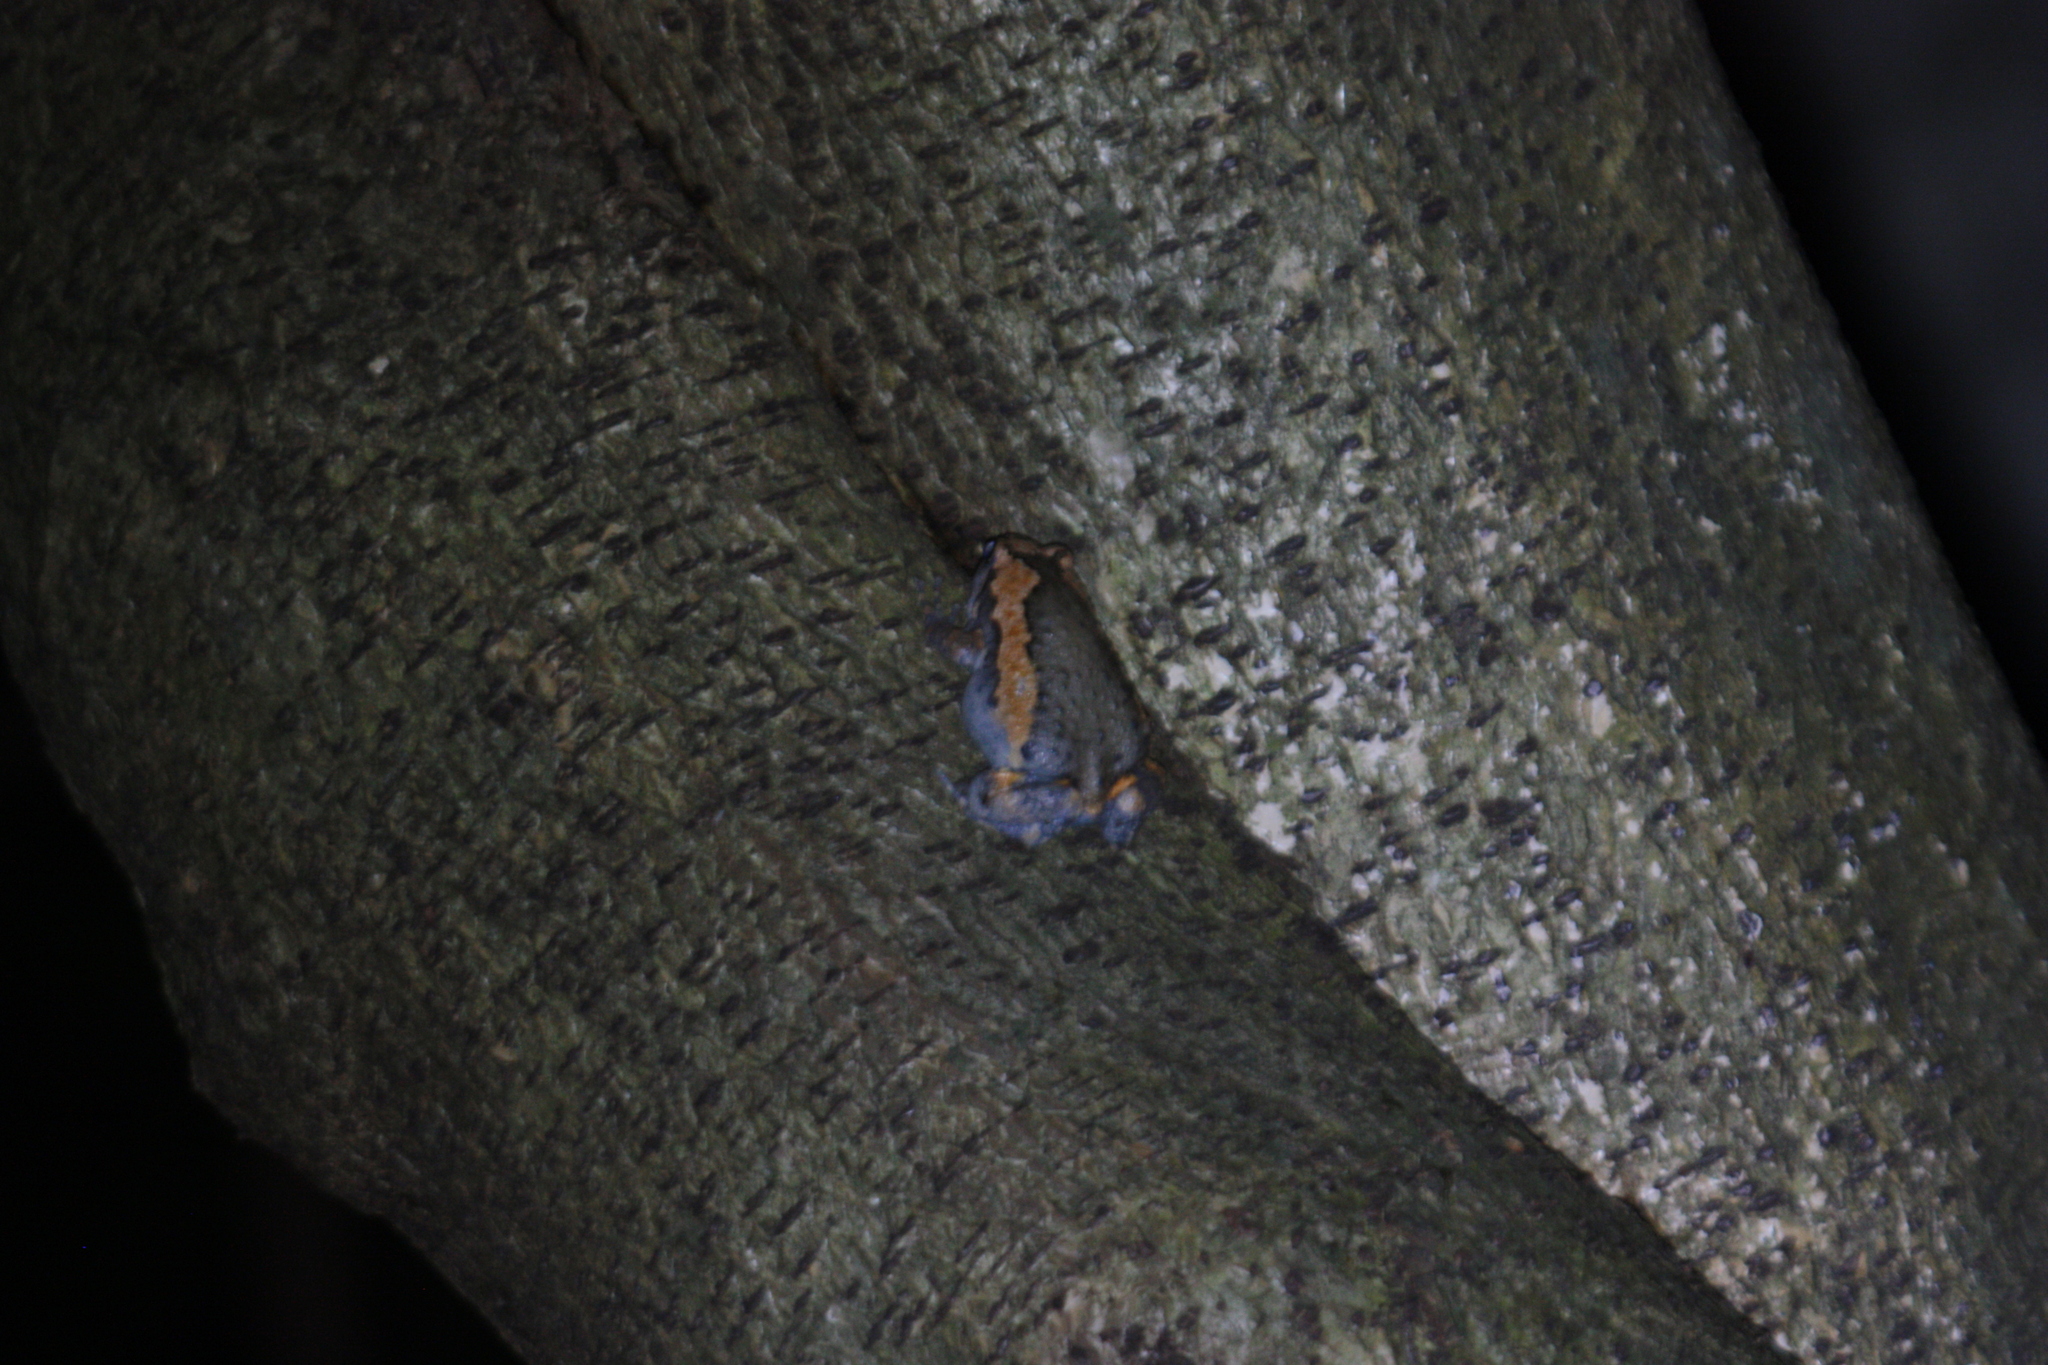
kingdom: Animalia
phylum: Chordata
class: Amphibia
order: Anura
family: Microhylidae
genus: Kaloula
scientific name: Kaloula pulchra
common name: Common,banded bullfrog
